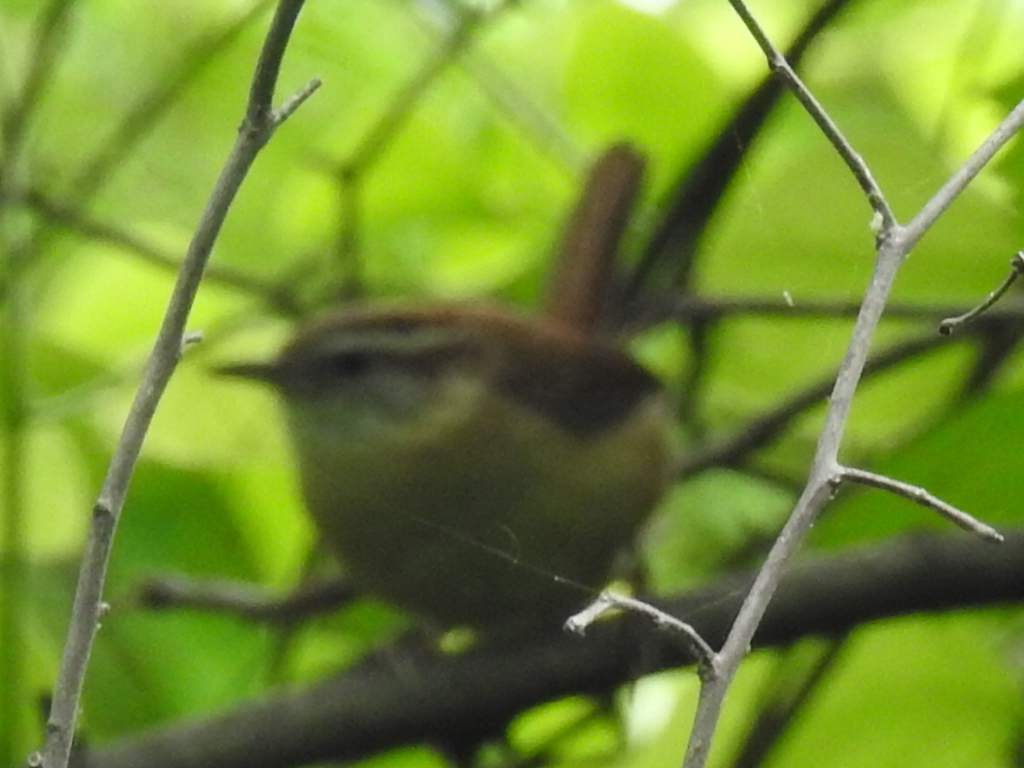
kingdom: Animalia
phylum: Chordata
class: Aves
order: Passeriformes
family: Troglodytidae
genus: Thryothorus
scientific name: Thryothorus ludovicianus
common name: Carolina wren
